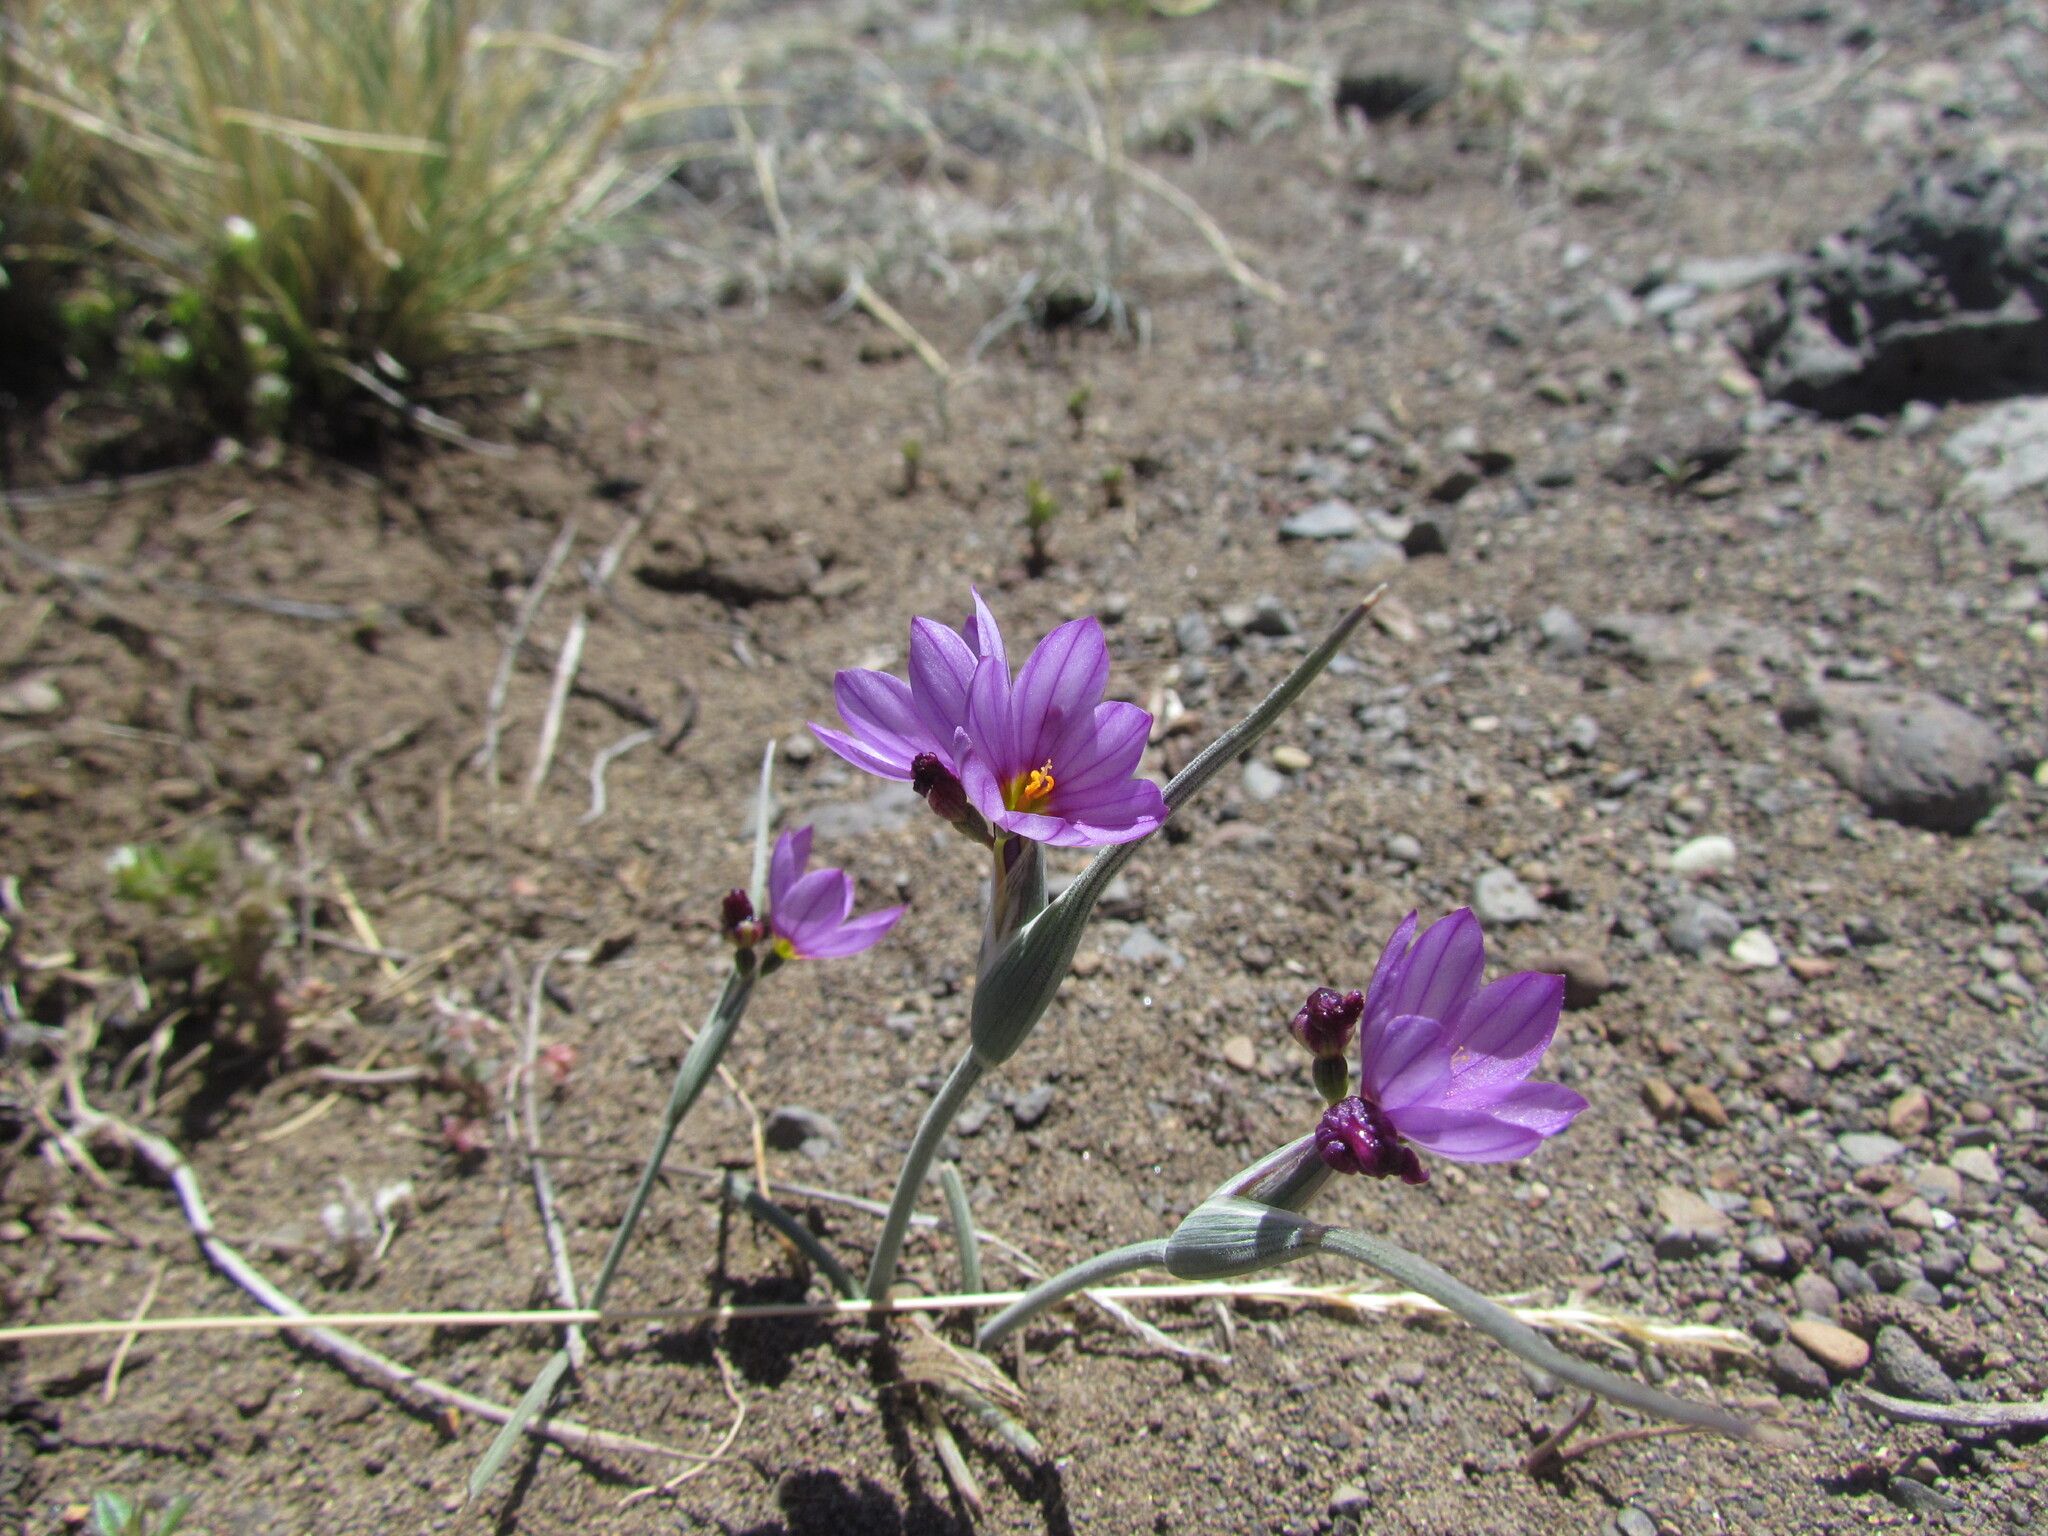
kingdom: Plantae
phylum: Tracheophyta
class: Liliopsida
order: Asparagales
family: Iridaceae
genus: Olsynium
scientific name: Olsynium junceum
